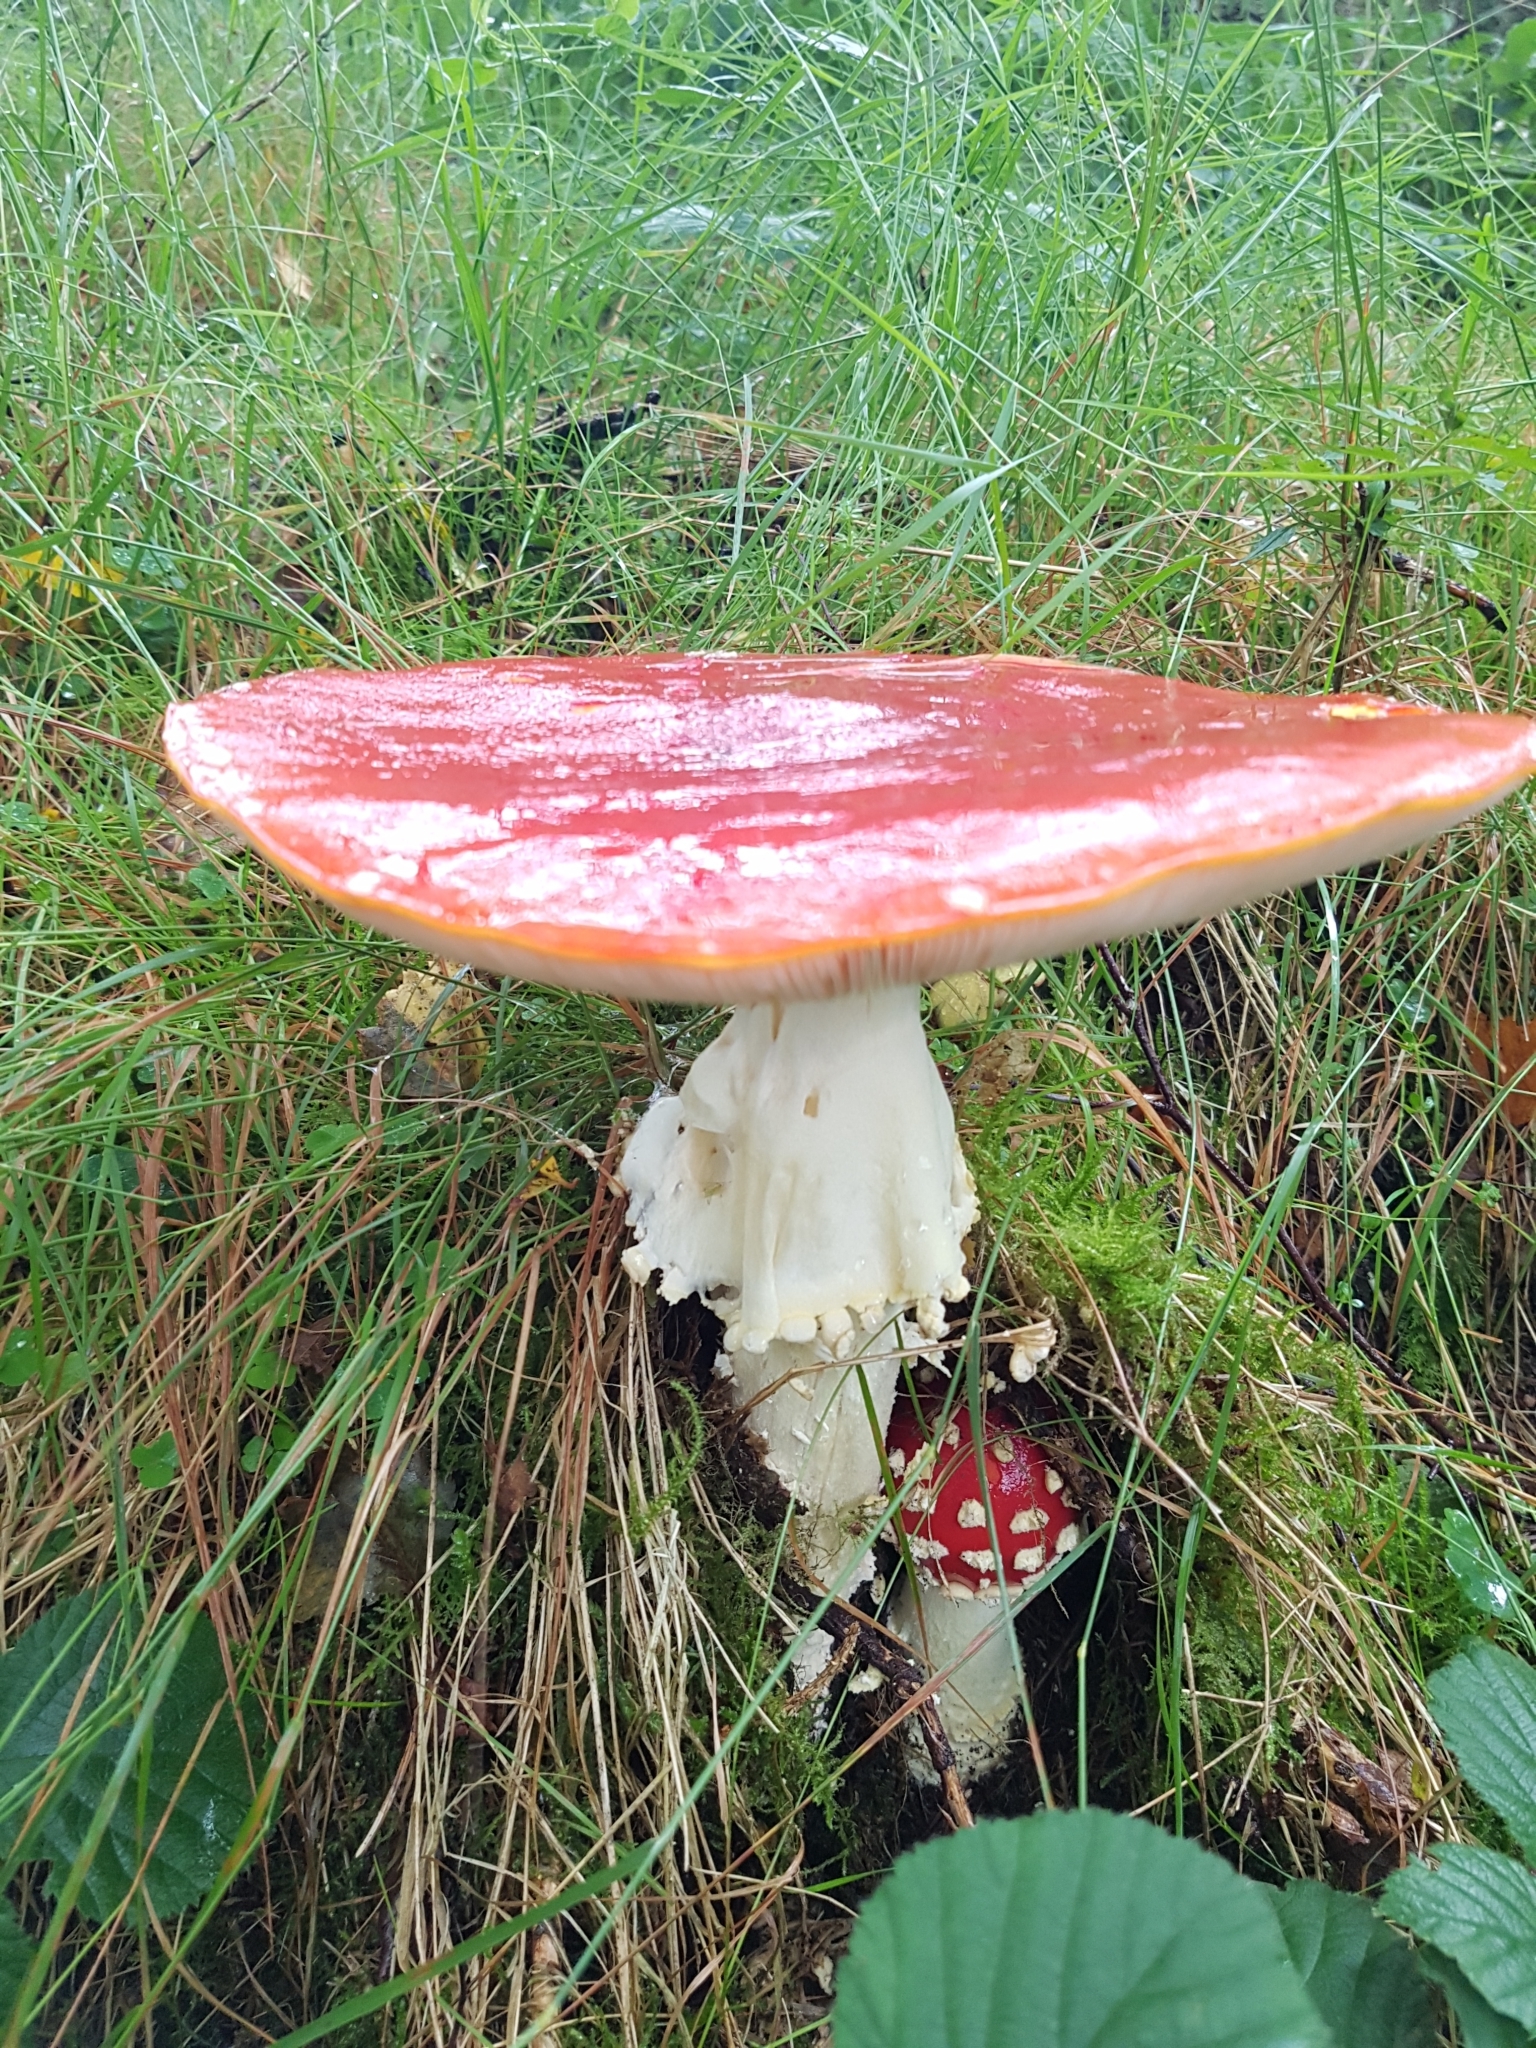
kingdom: Fungi
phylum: Basidiomycota
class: Agaricomycetes
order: Agaricales
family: Amanitaceae
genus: Amanita
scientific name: Amanita muscaria
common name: Fly agaric
